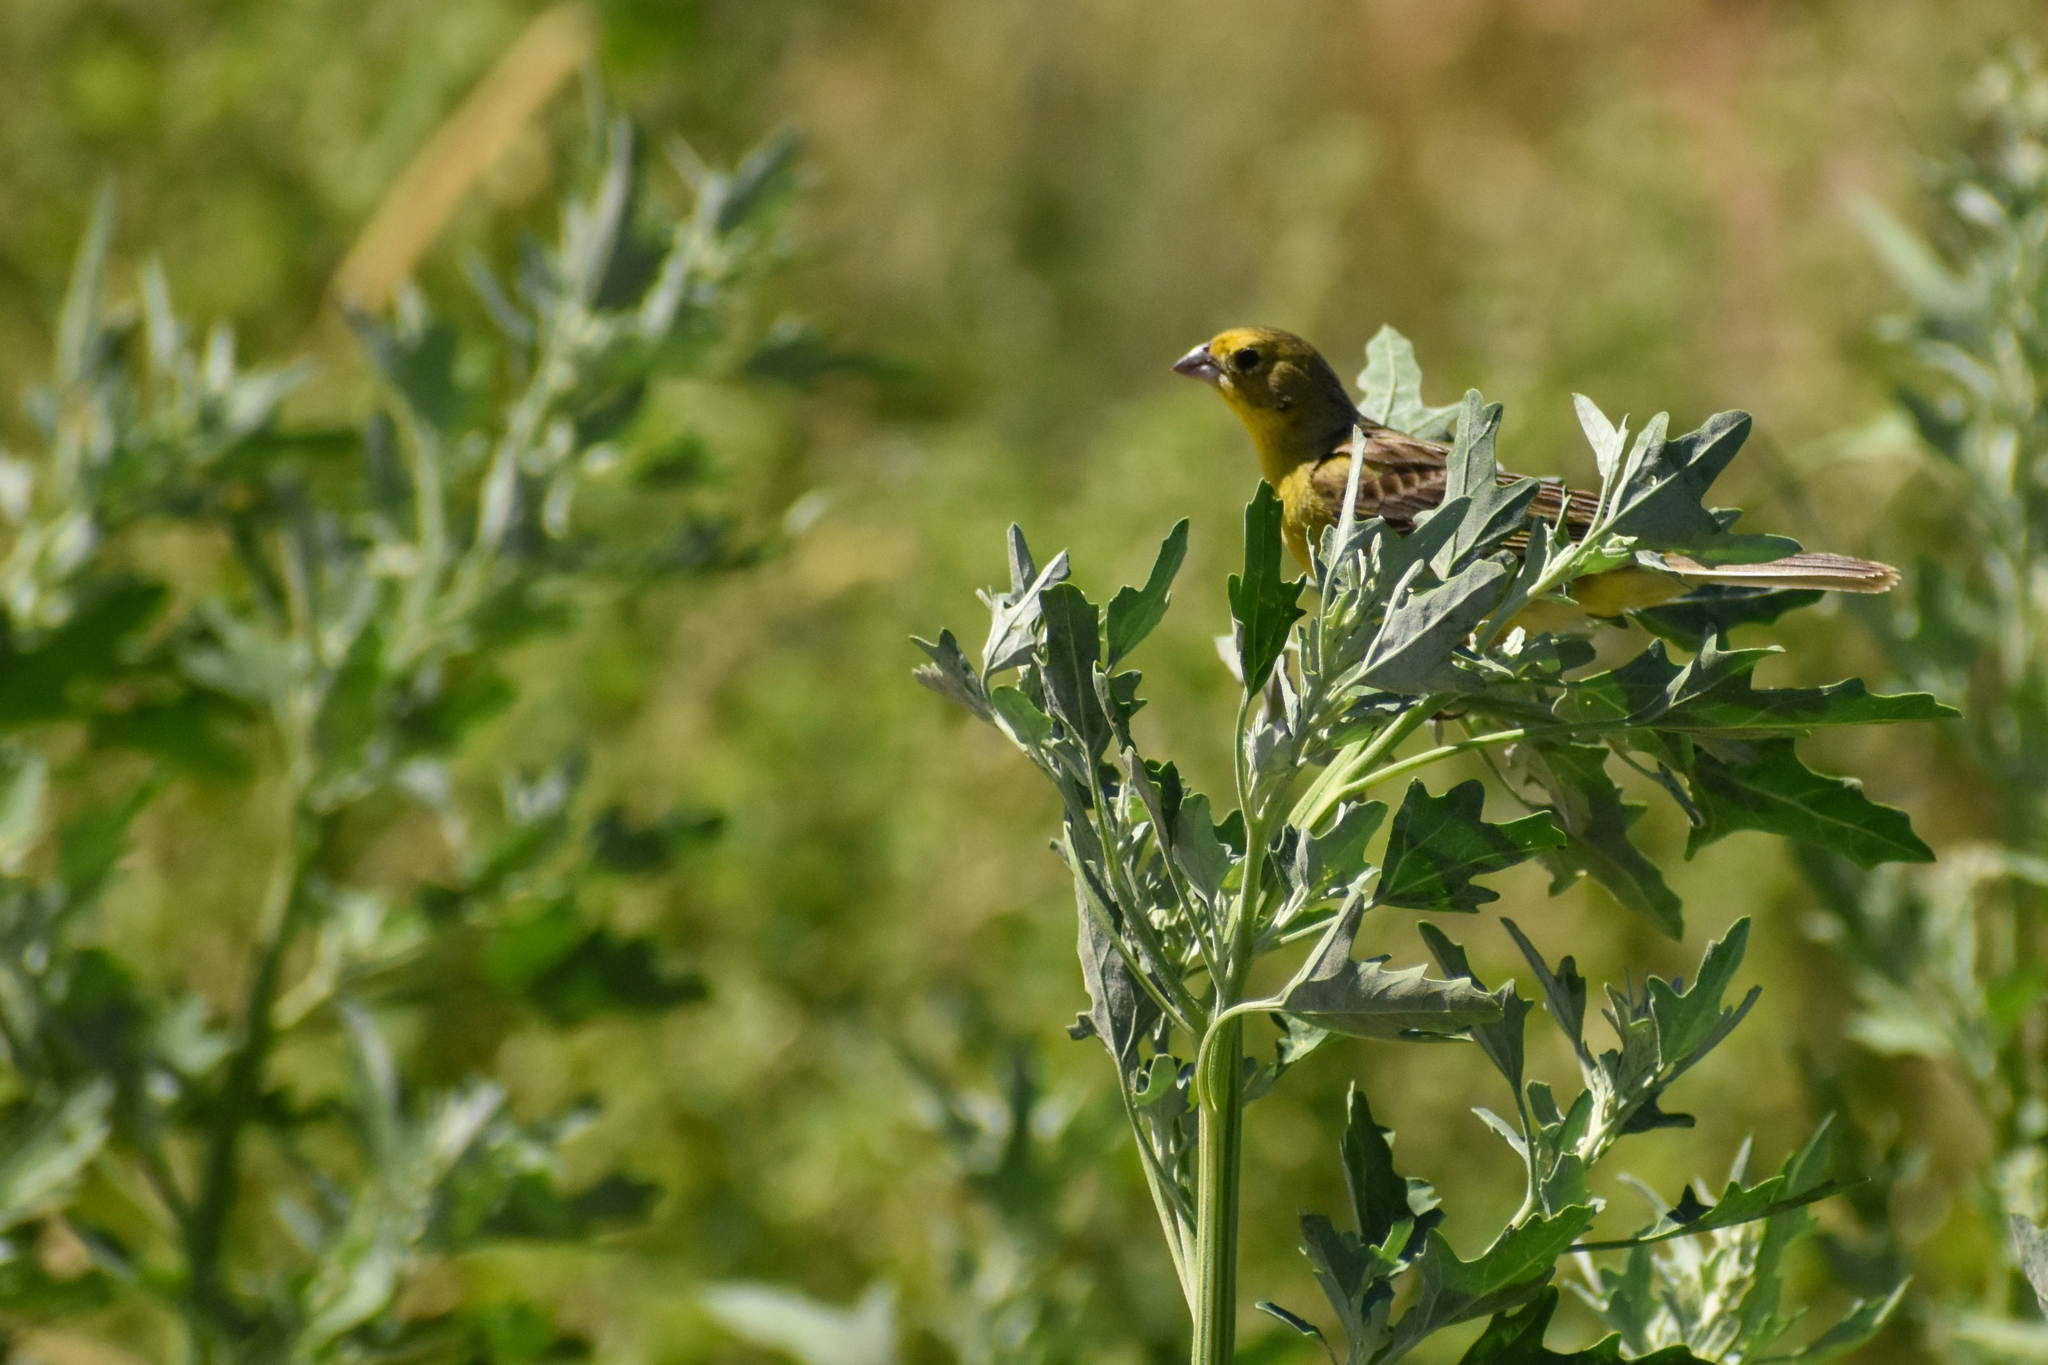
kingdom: Animalia
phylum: Chordata
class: Aves
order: Passeriformes
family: Thraupidae
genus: Sicalis
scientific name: Sicalis luteola
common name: Grassland yellow-finch
